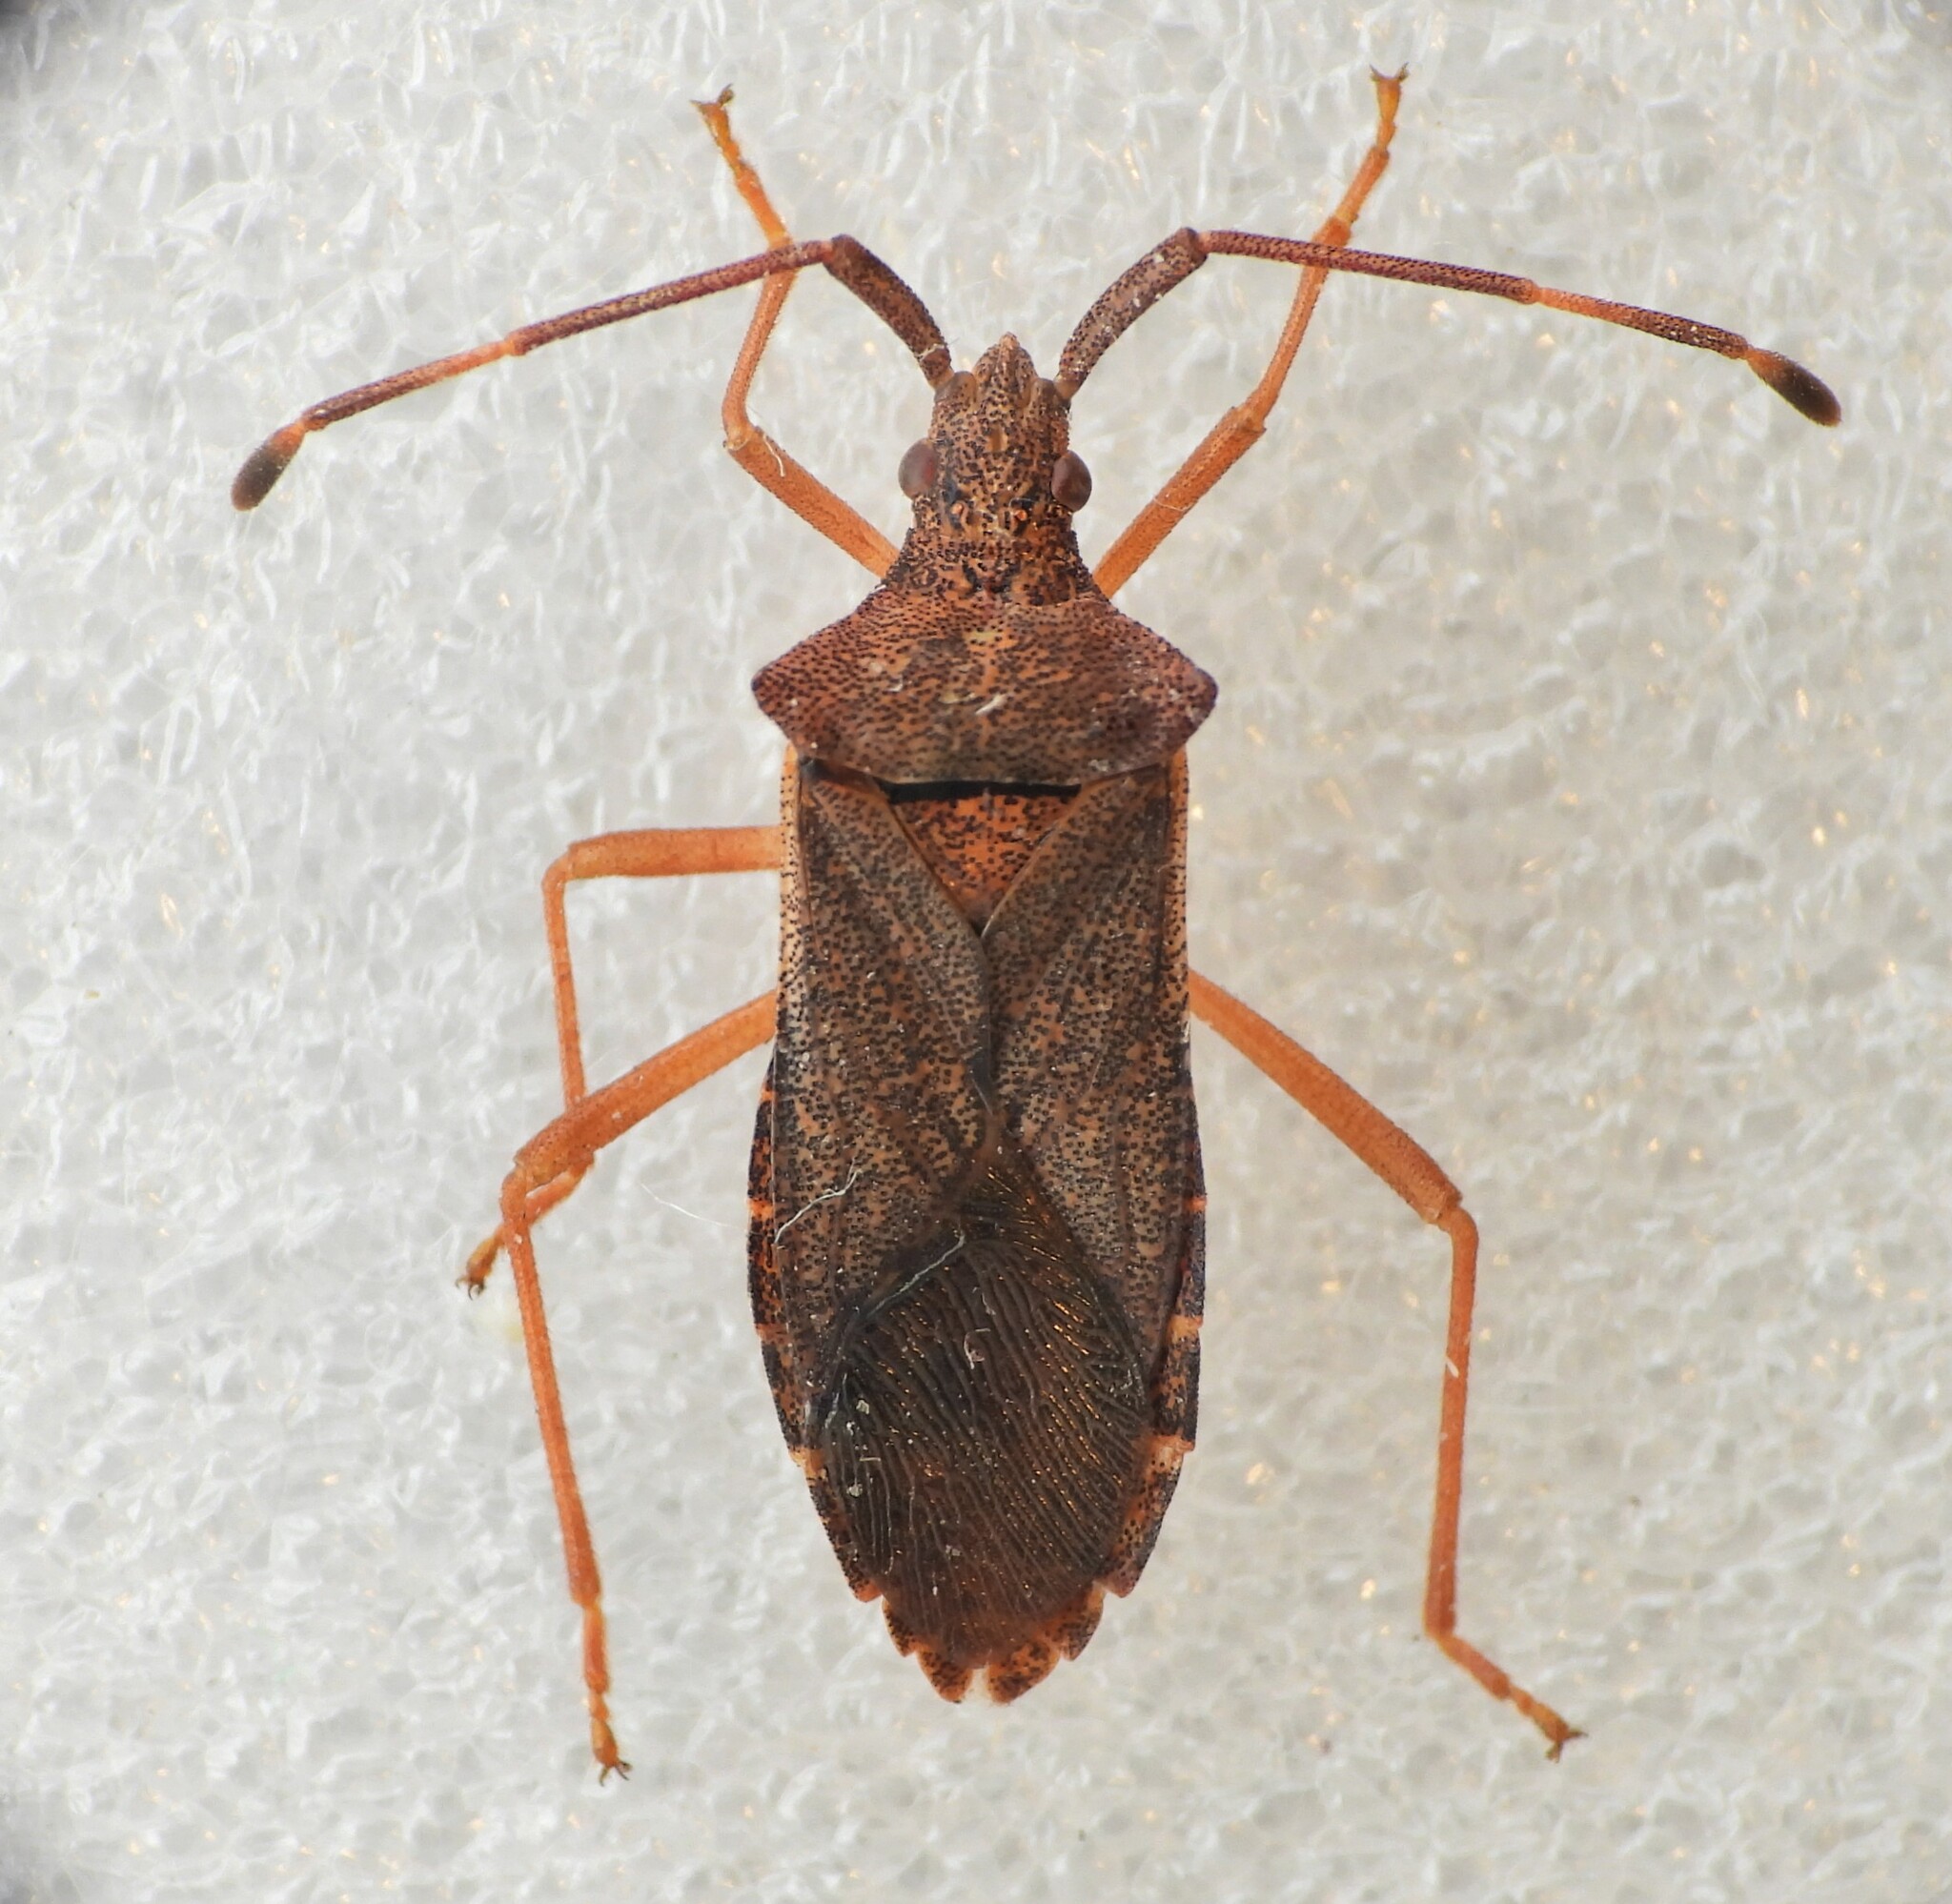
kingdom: Animalia
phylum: Arthropoda
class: Insecta
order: Hemiptera
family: Coreidae
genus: Gonocerus
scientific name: Gonocerus acuteangulatus
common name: Box bug
